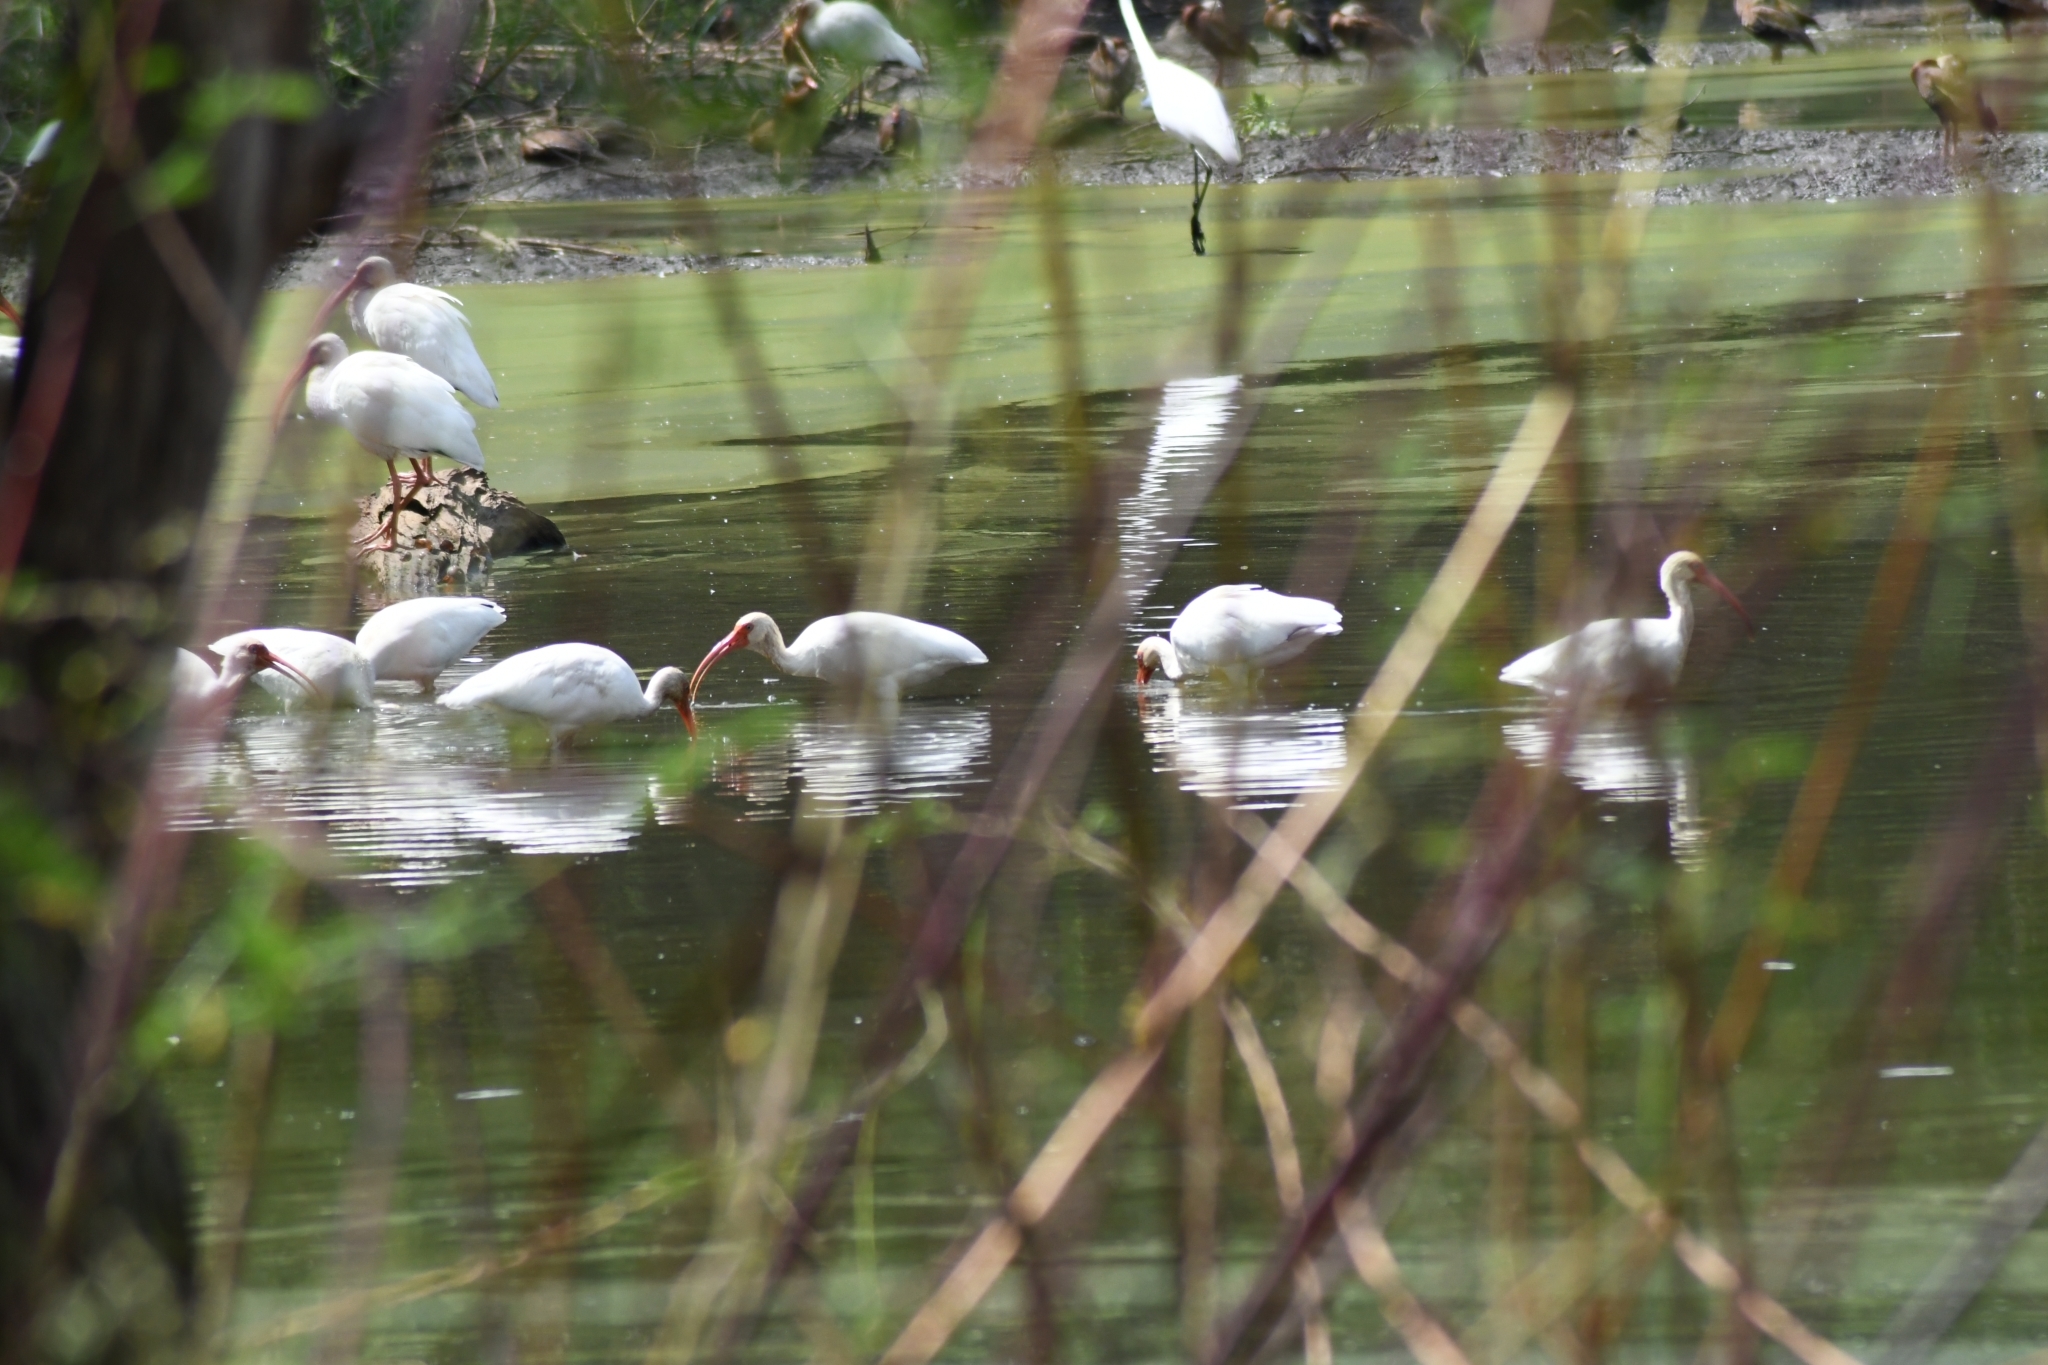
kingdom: Animalia
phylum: Chordata
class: Aves
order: Pelecaniformes
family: Threskiornithidae
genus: Eudocimus
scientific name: Eudocimus albus
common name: White ibis
